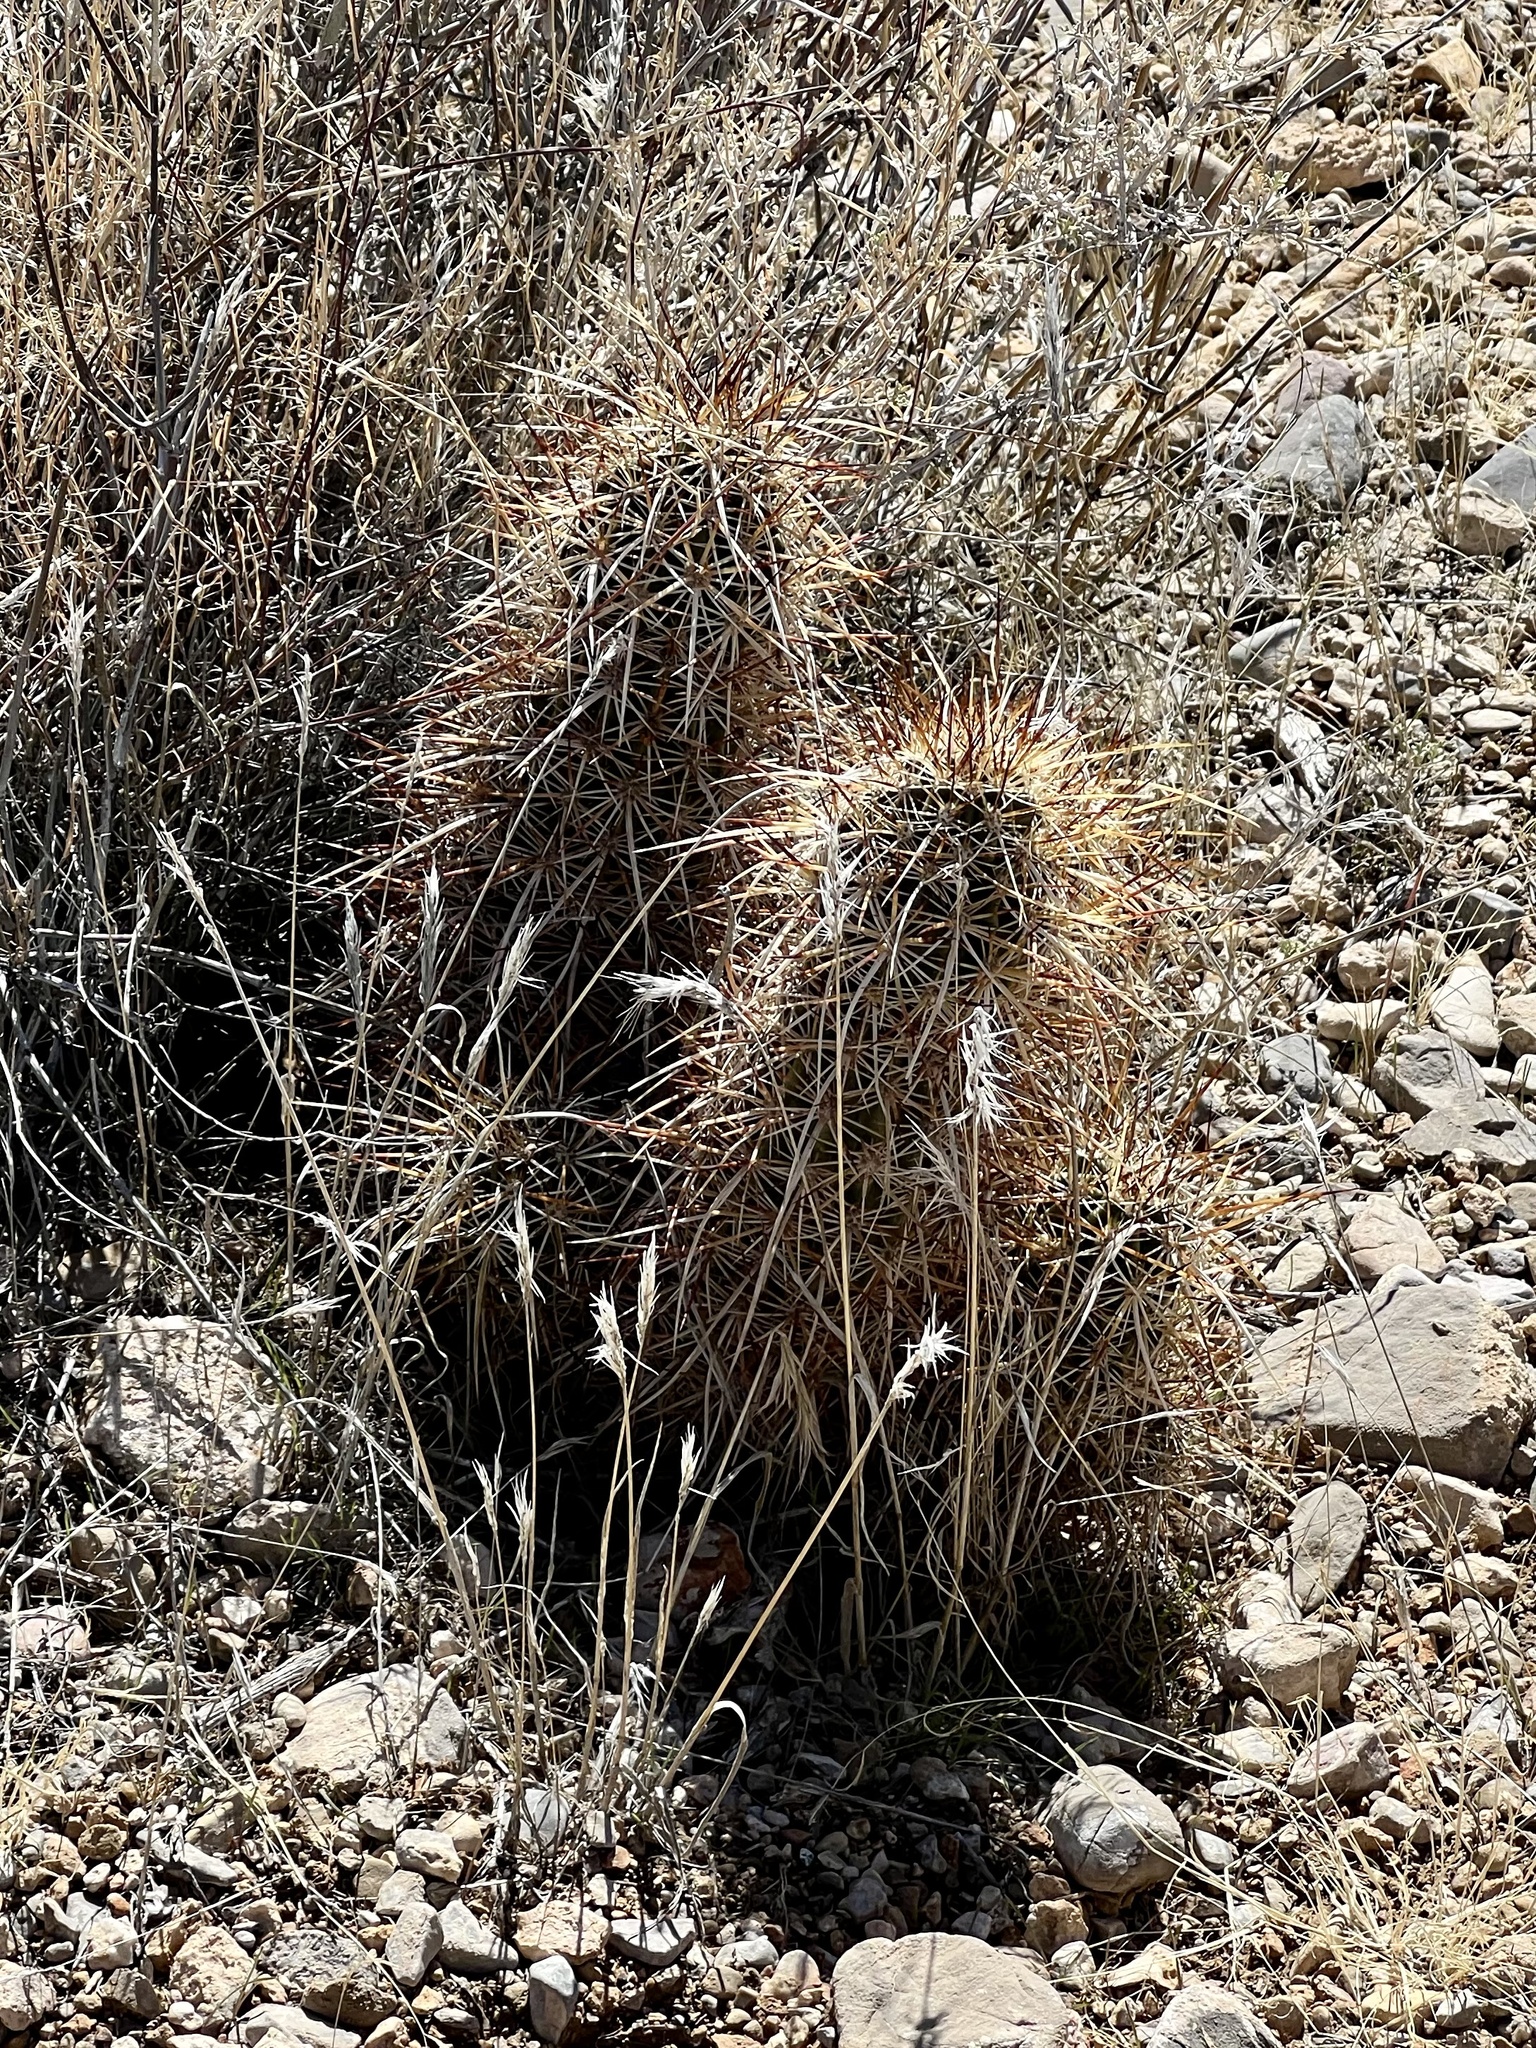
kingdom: Plantae
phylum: Tracheophyta
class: Magnoliopsida
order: Caryophyllales
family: Cactaceae
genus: Echinocereus
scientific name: Echinocereus engelmannii
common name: Engelmann's hedgehog cactus
